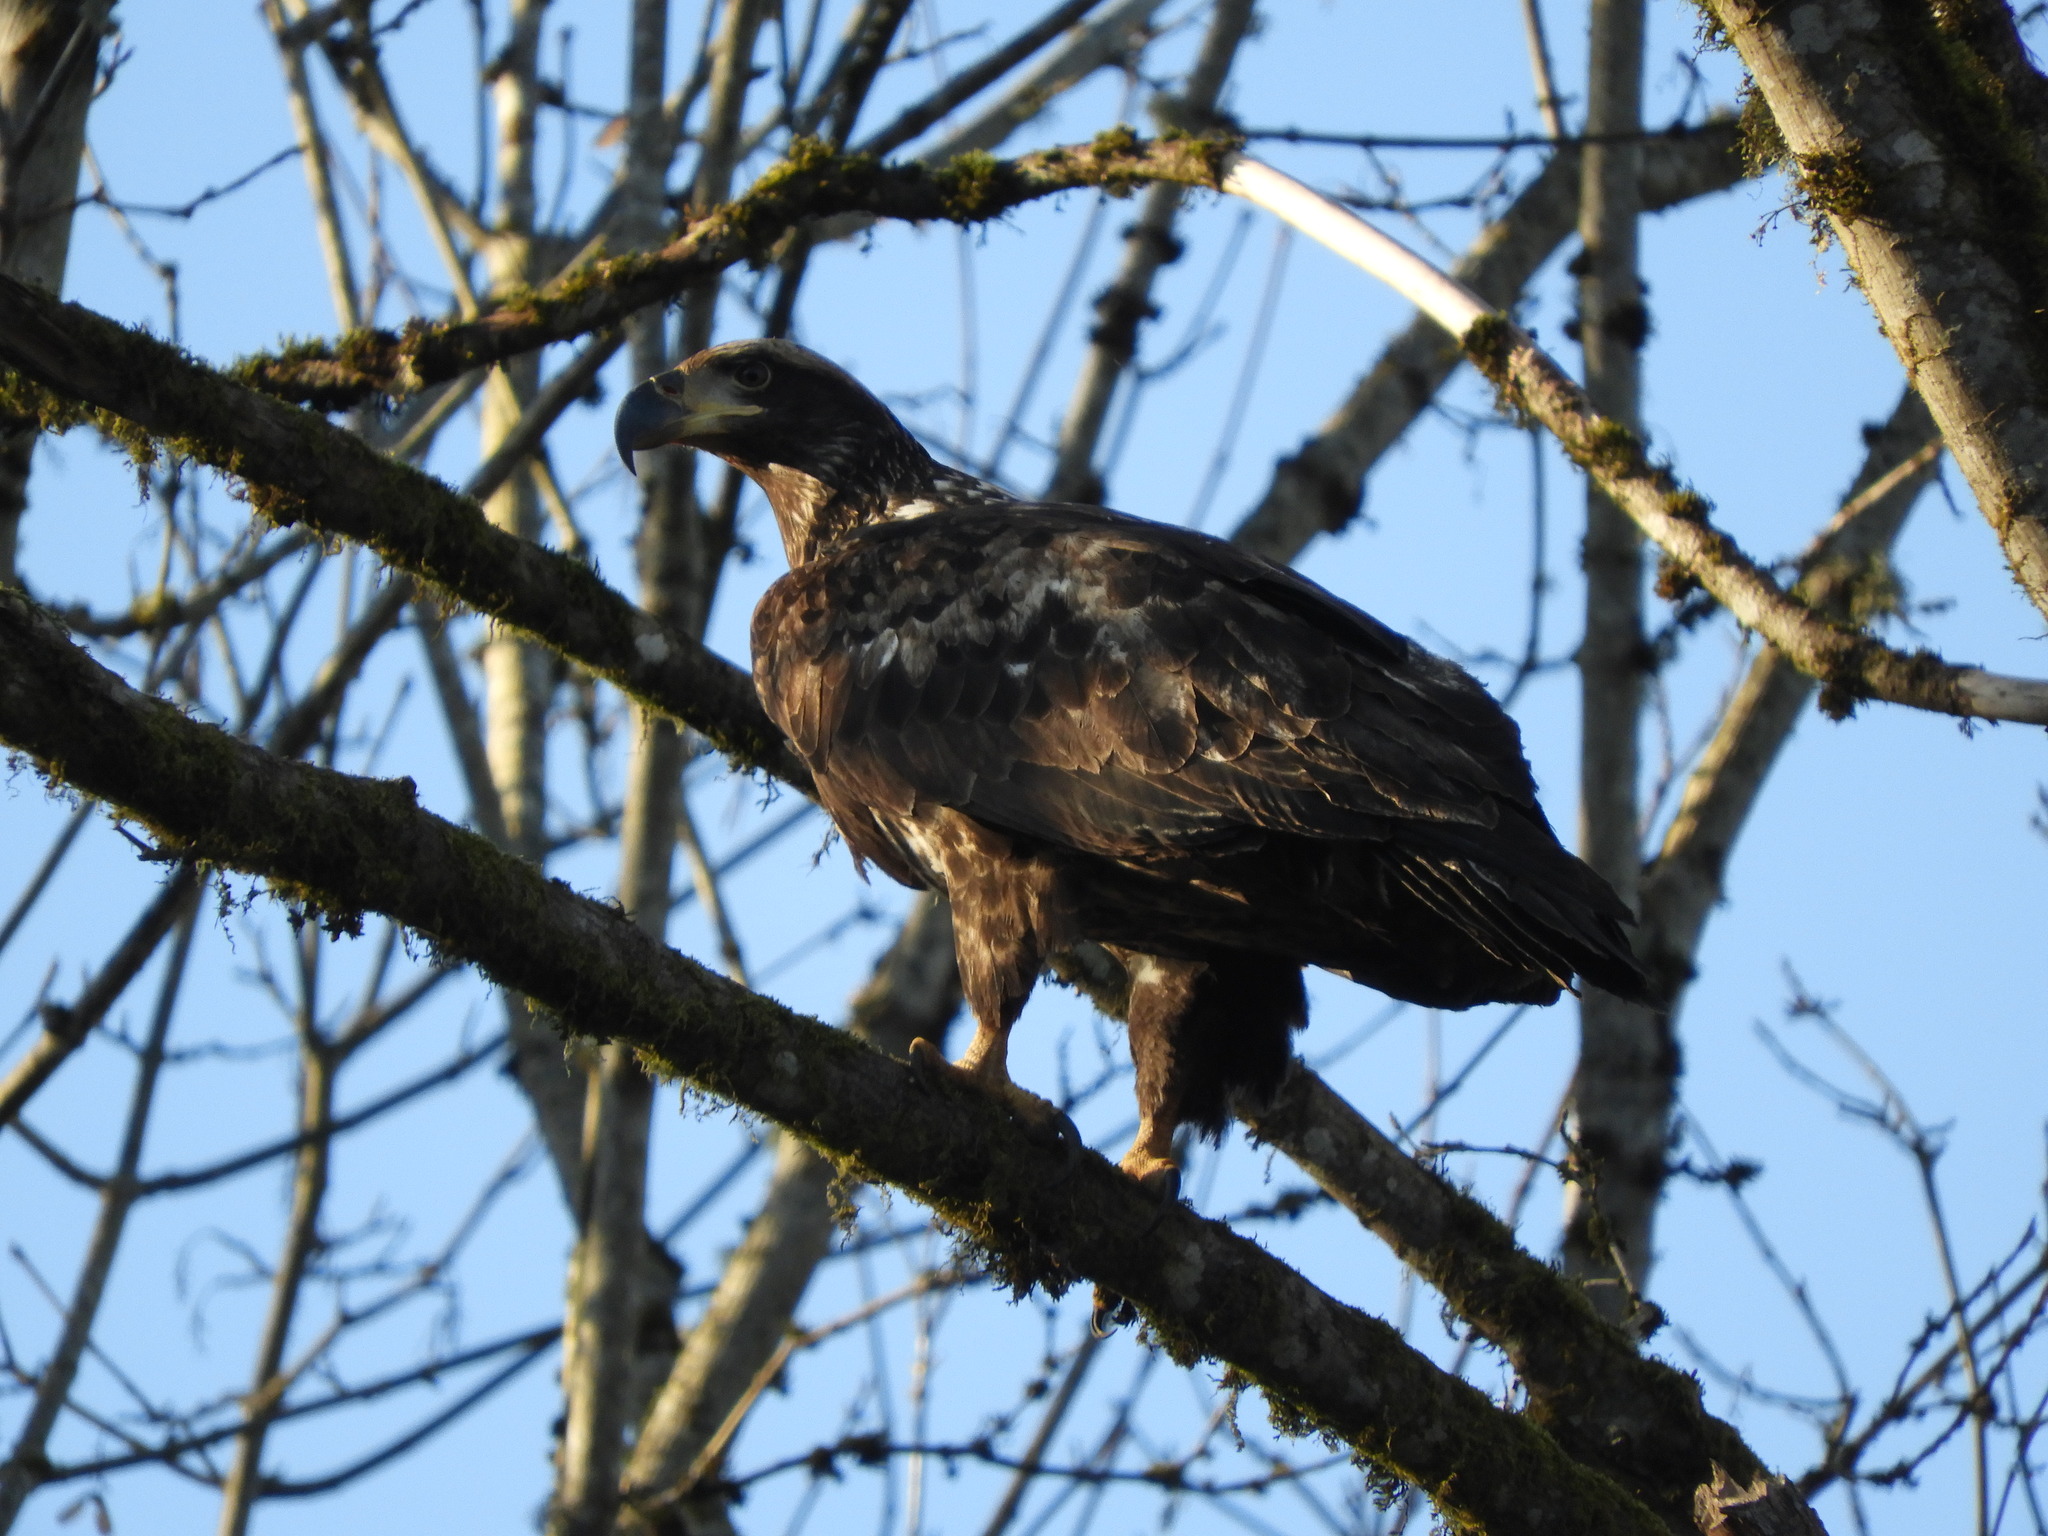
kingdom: Animalia
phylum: Chordata
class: Aves
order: Accipitriformes
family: Accipitridae
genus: Haliaeetus
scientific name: Haliaeetus leucocephalus
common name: Bald eagle
